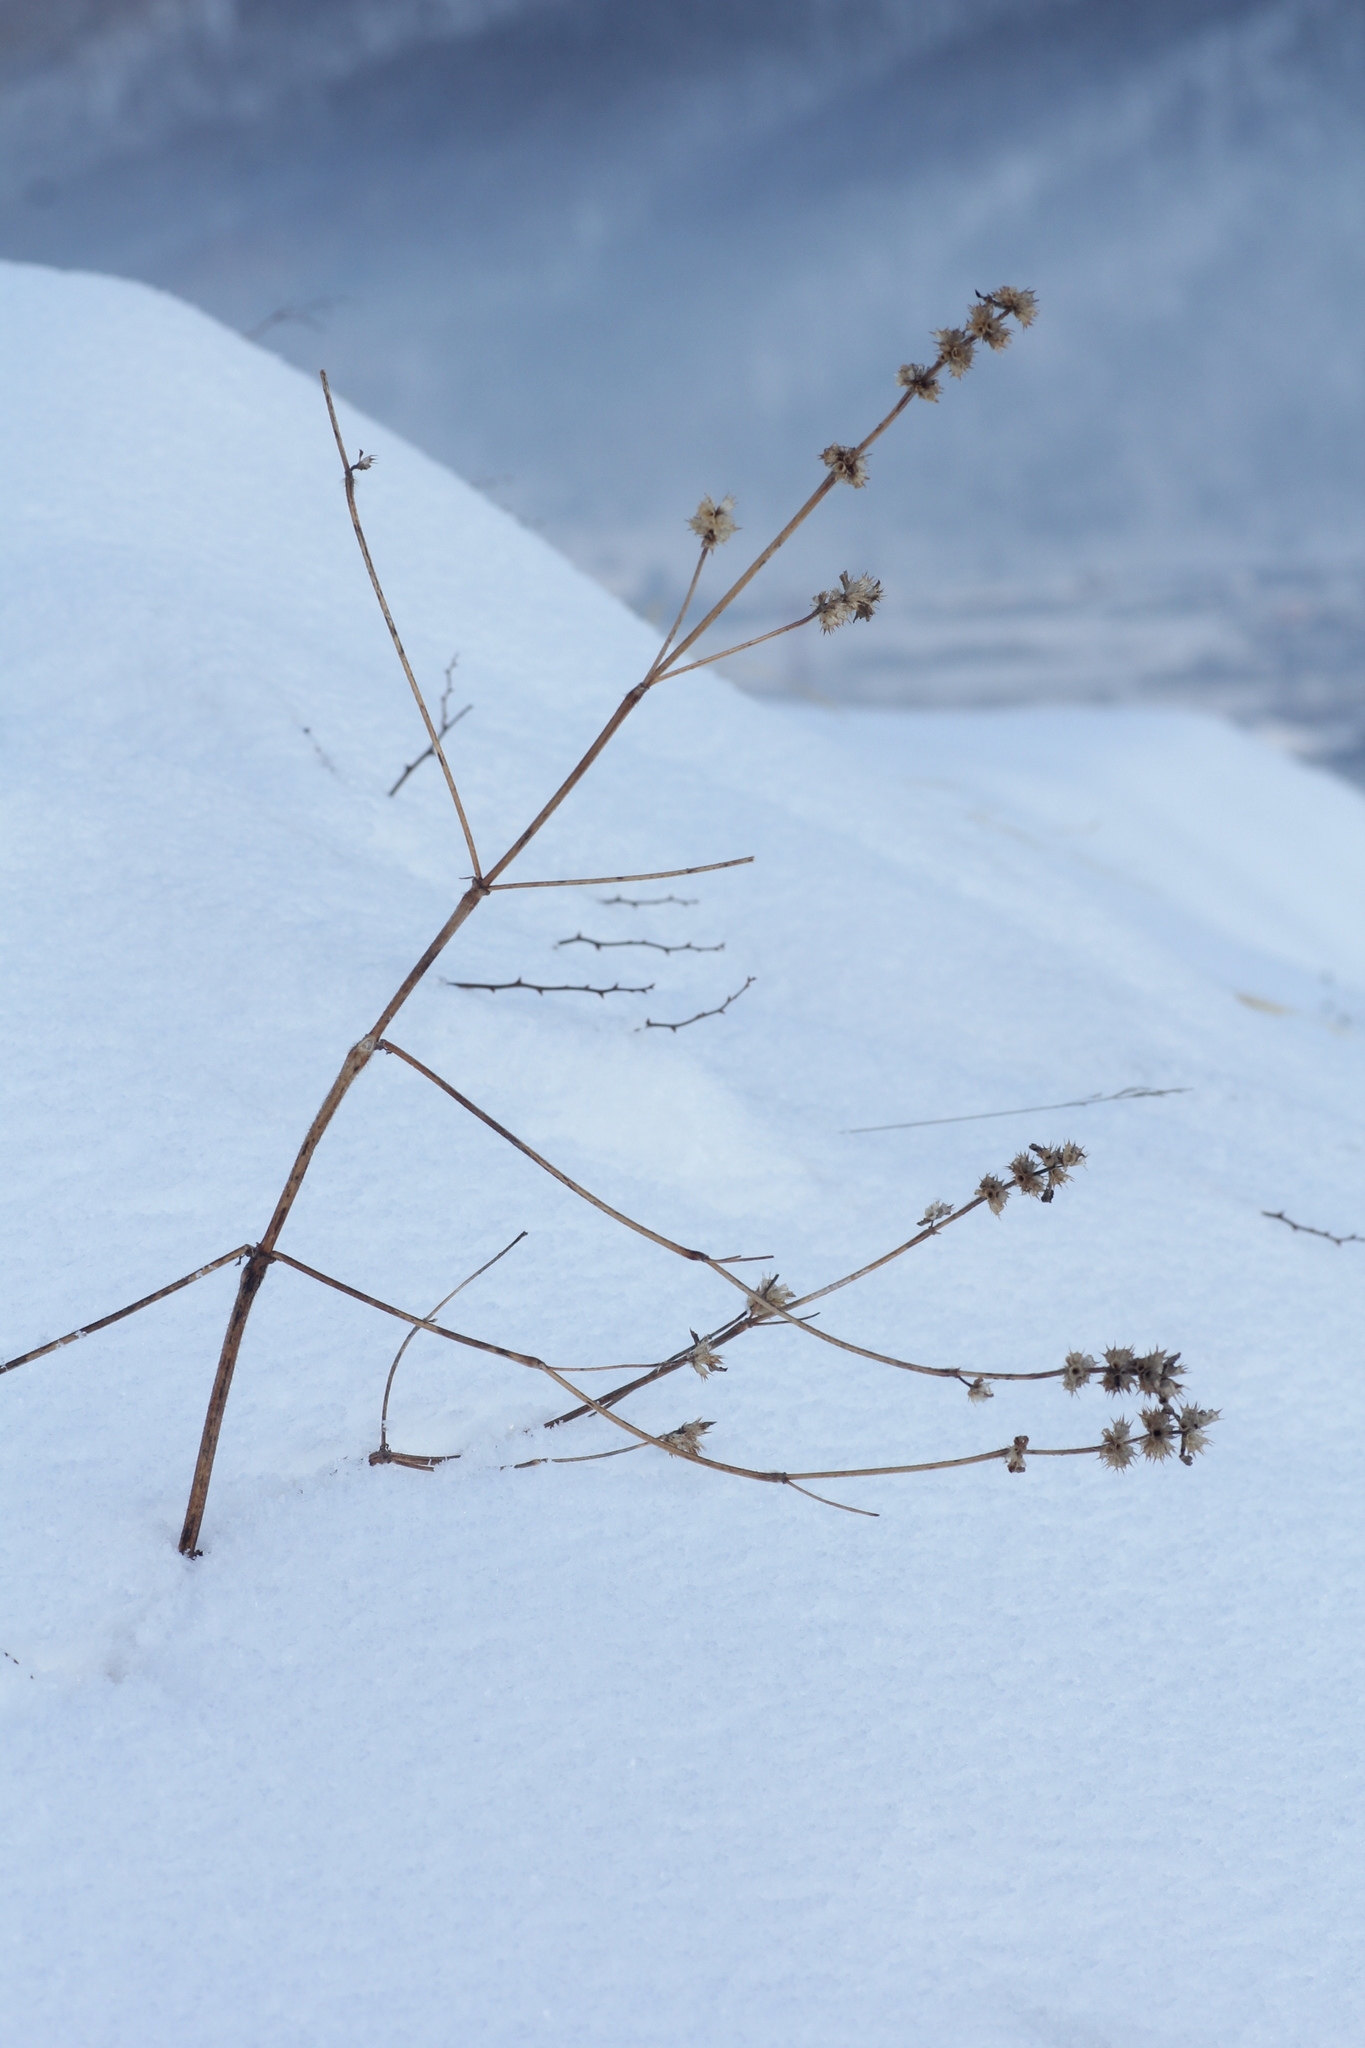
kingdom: Plantae
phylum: Tracheophyta
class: Magnoliopsida
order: Lamiales
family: Lamiaceae
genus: Galeopsis
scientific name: Galeopsis speciosa
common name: Large-flowered hemp-nettle
